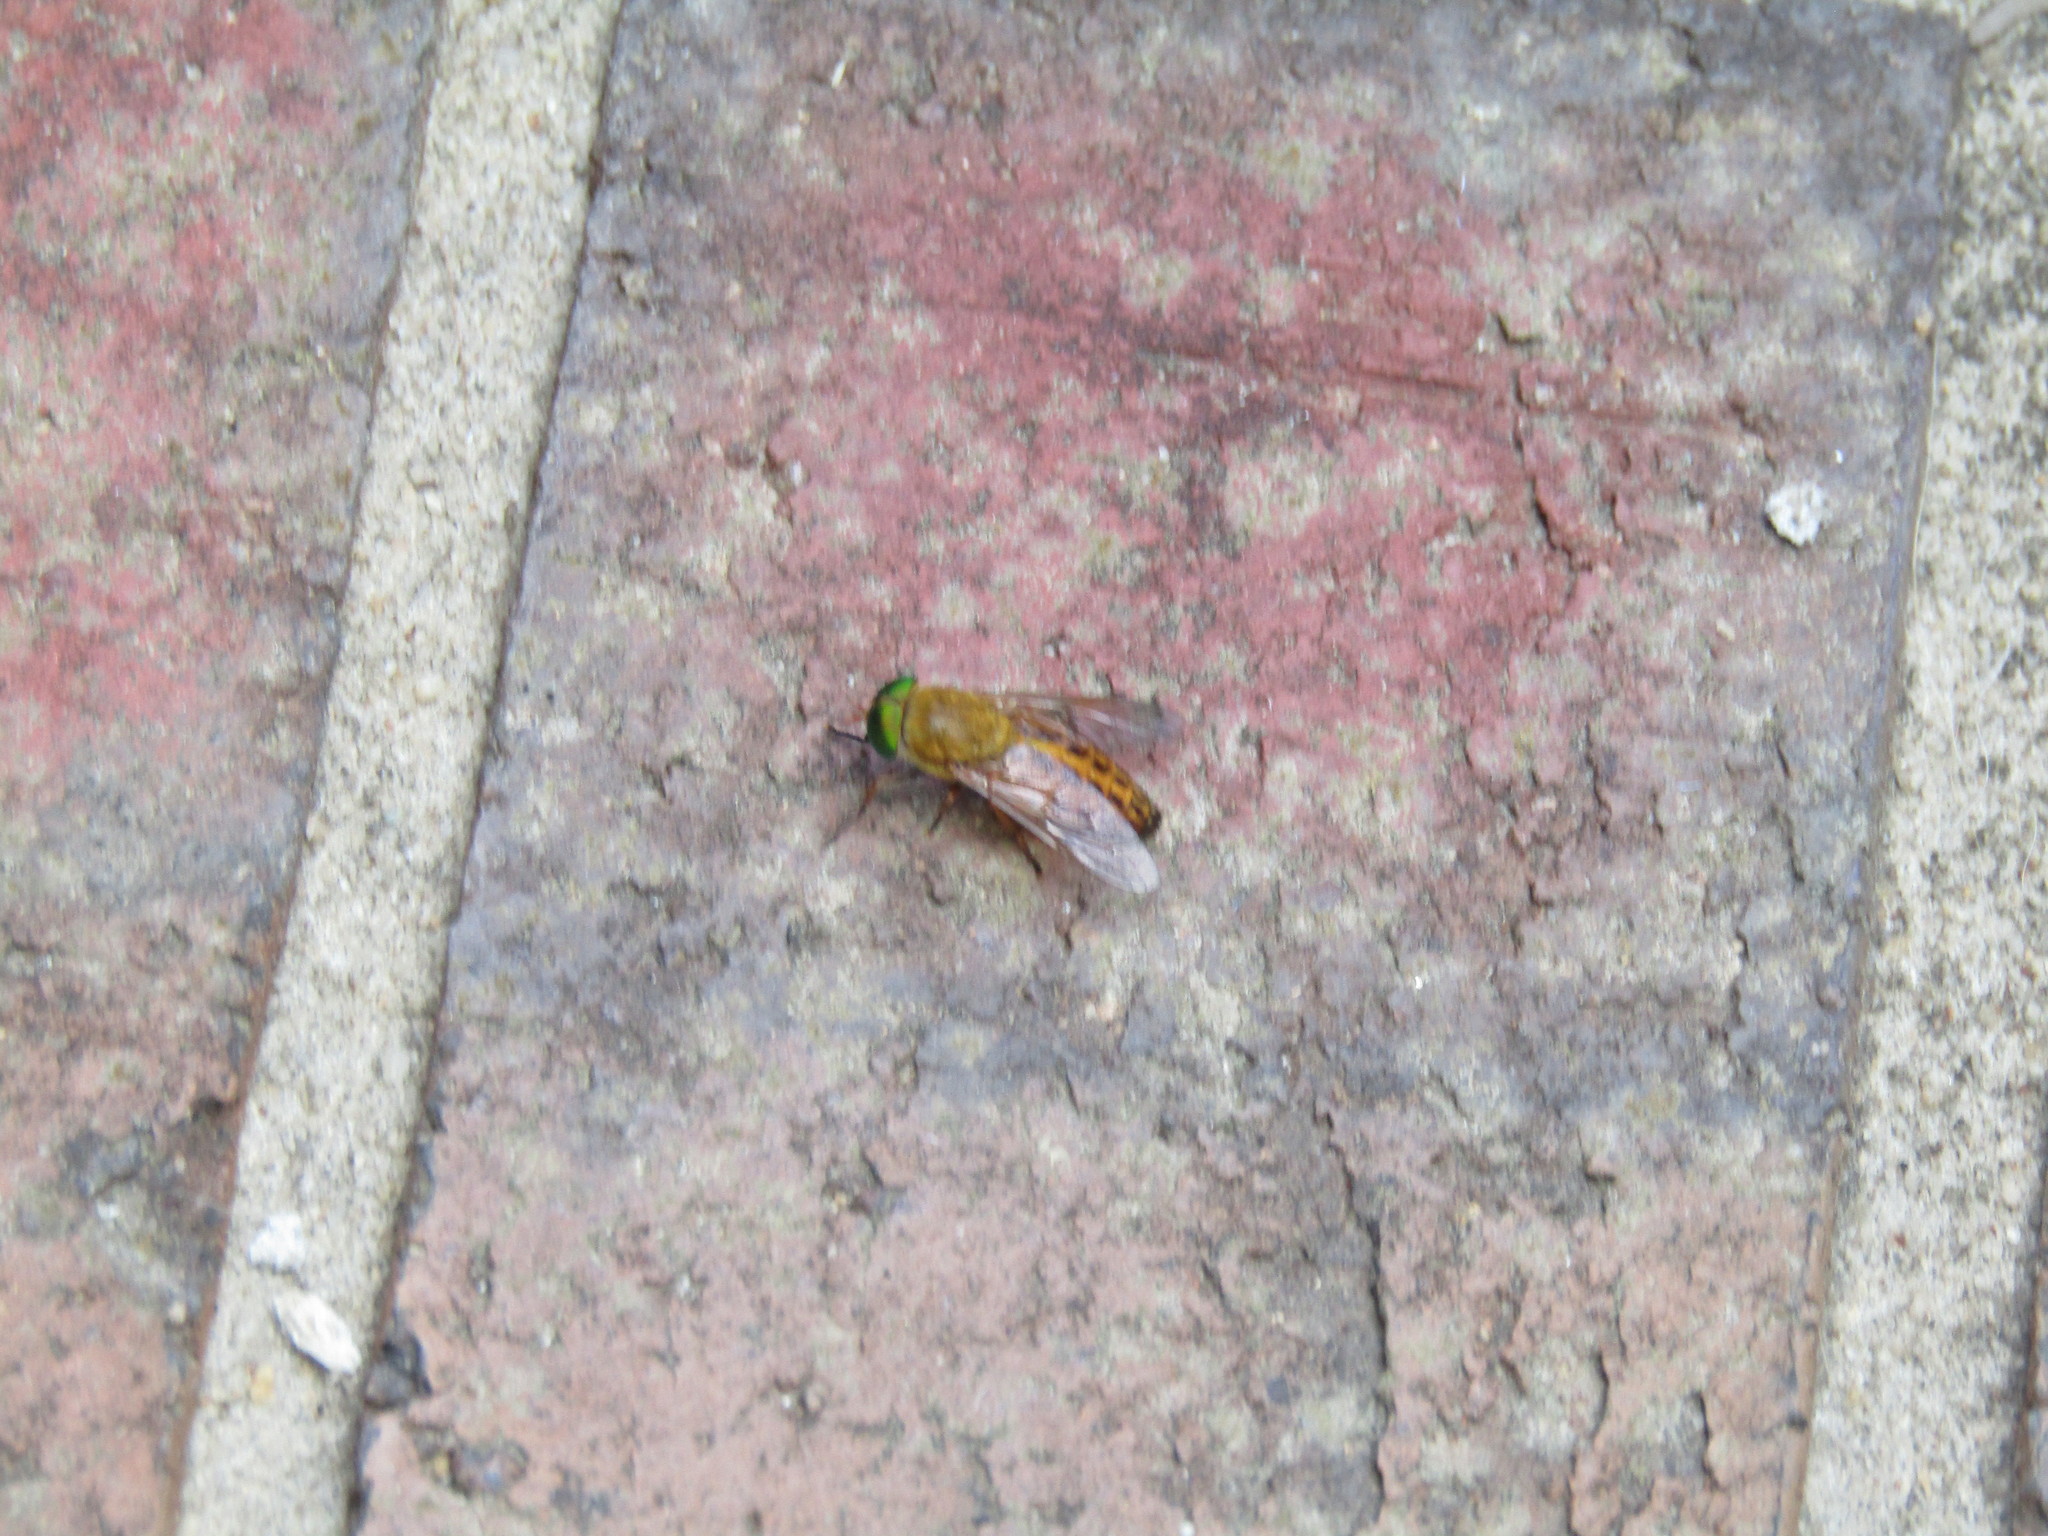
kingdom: Animalia
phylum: Arthropoda
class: Insecta
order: Diptera
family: Tabanidae
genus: Tabanus
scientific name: Tabanus fulvulus
